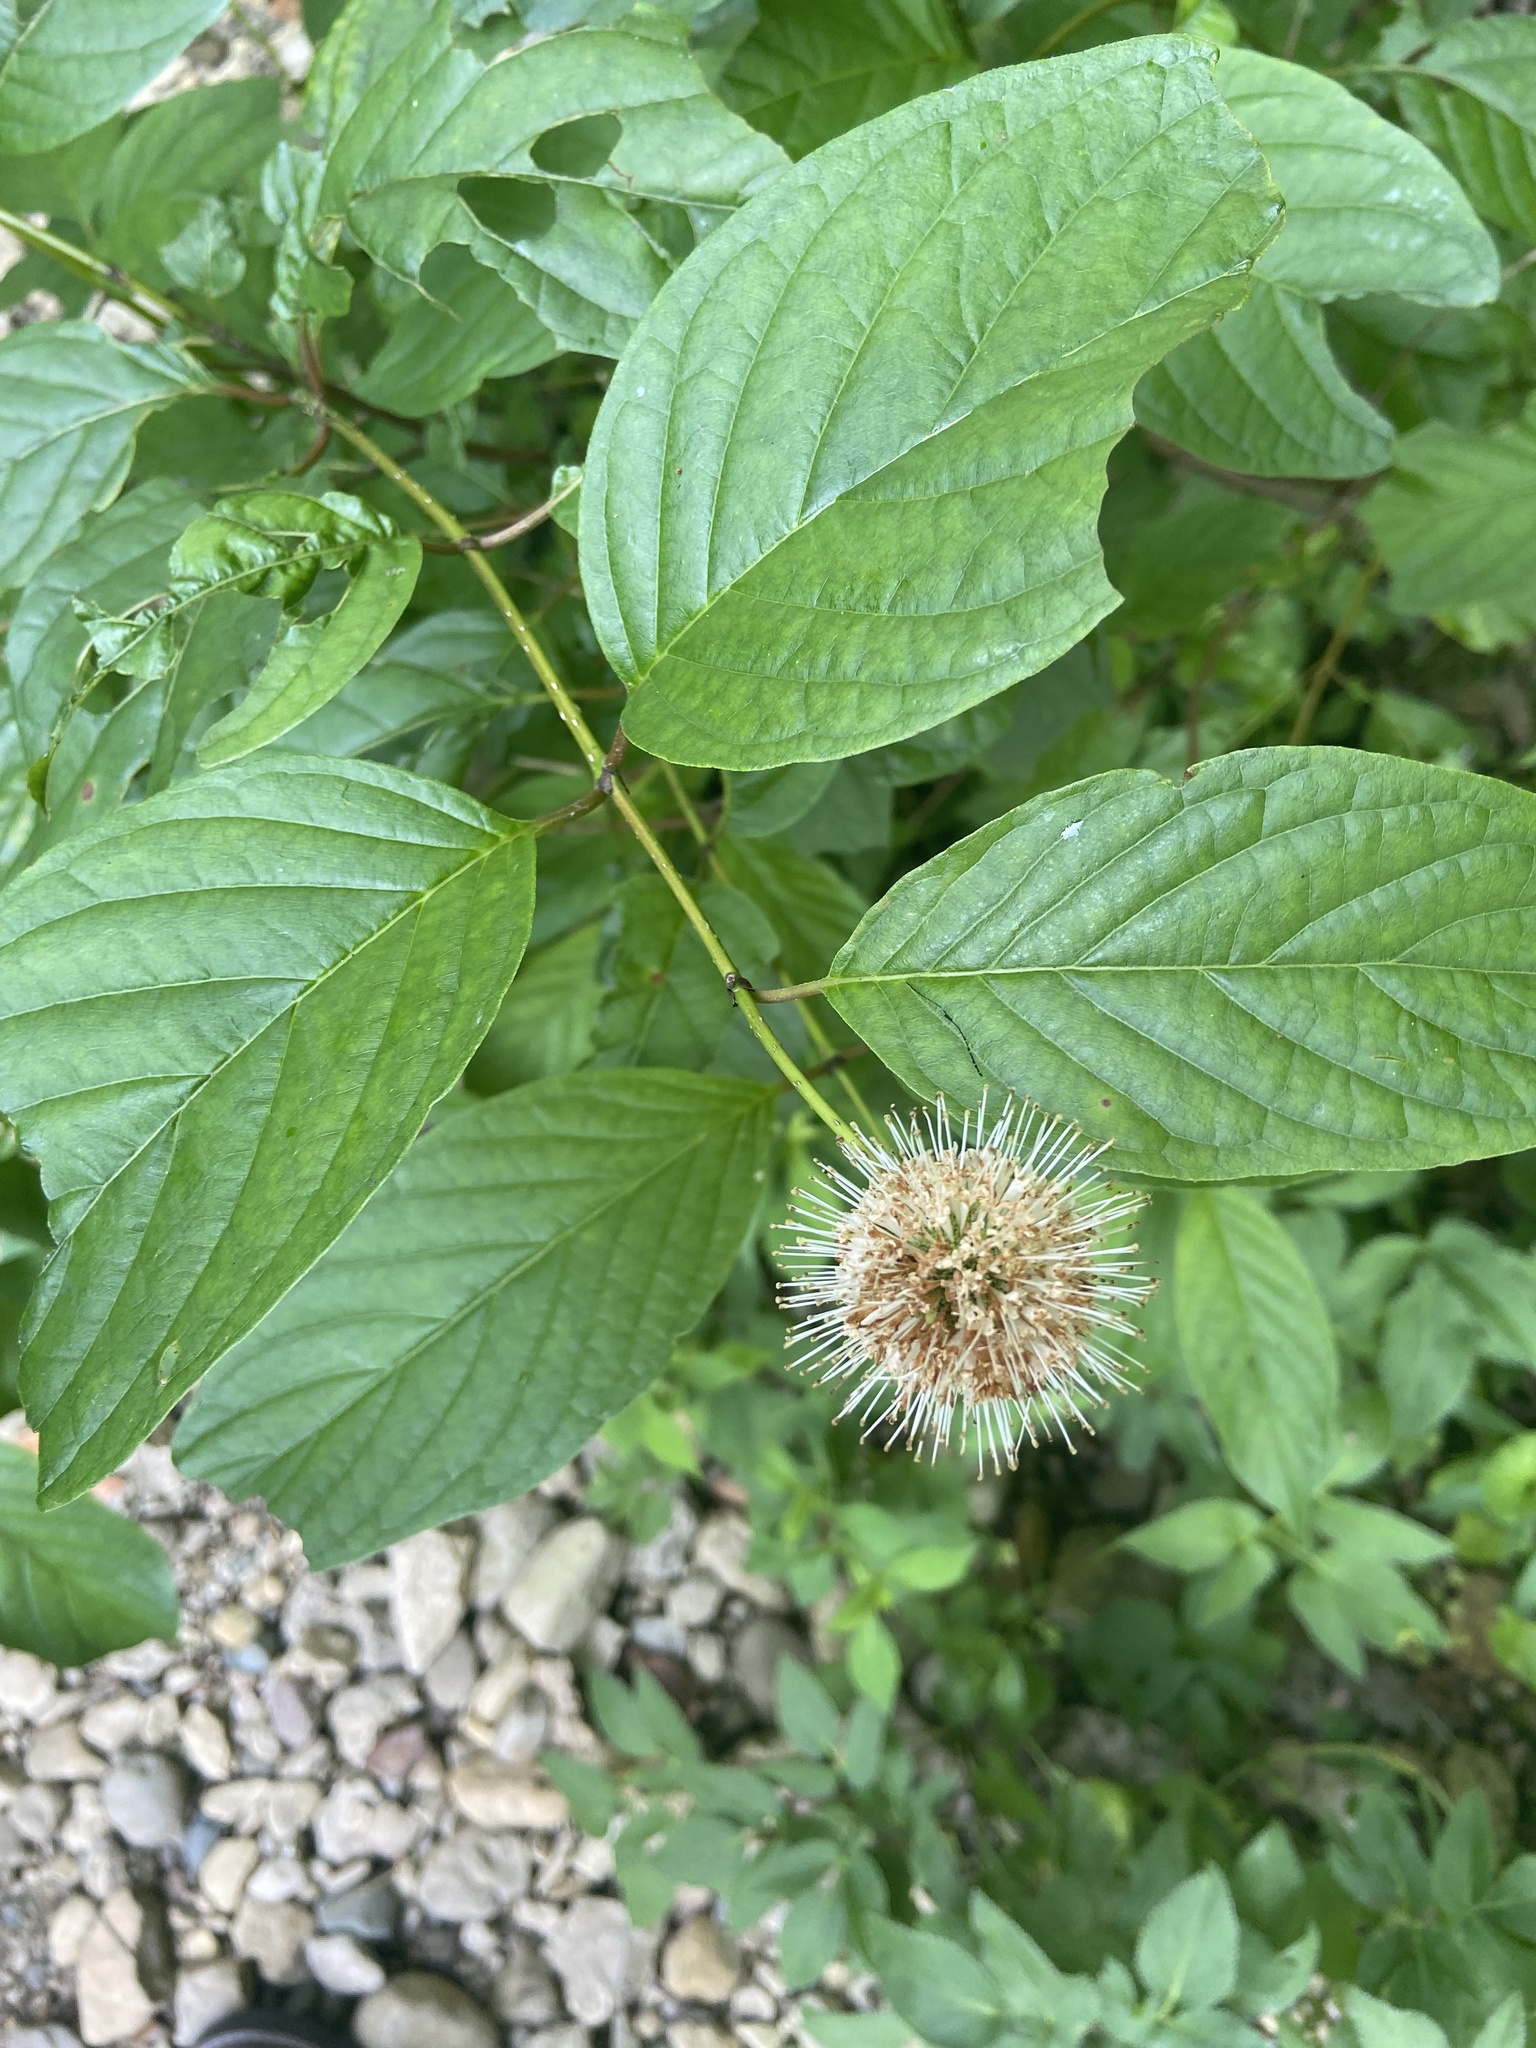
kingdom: Plantae
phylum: Tracheophyta
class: Magnoliopsida
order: Gentianales
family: Rubiaceae
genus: Cephalanthus
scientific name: Cephalanthus occidentalis
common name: Button-willow
